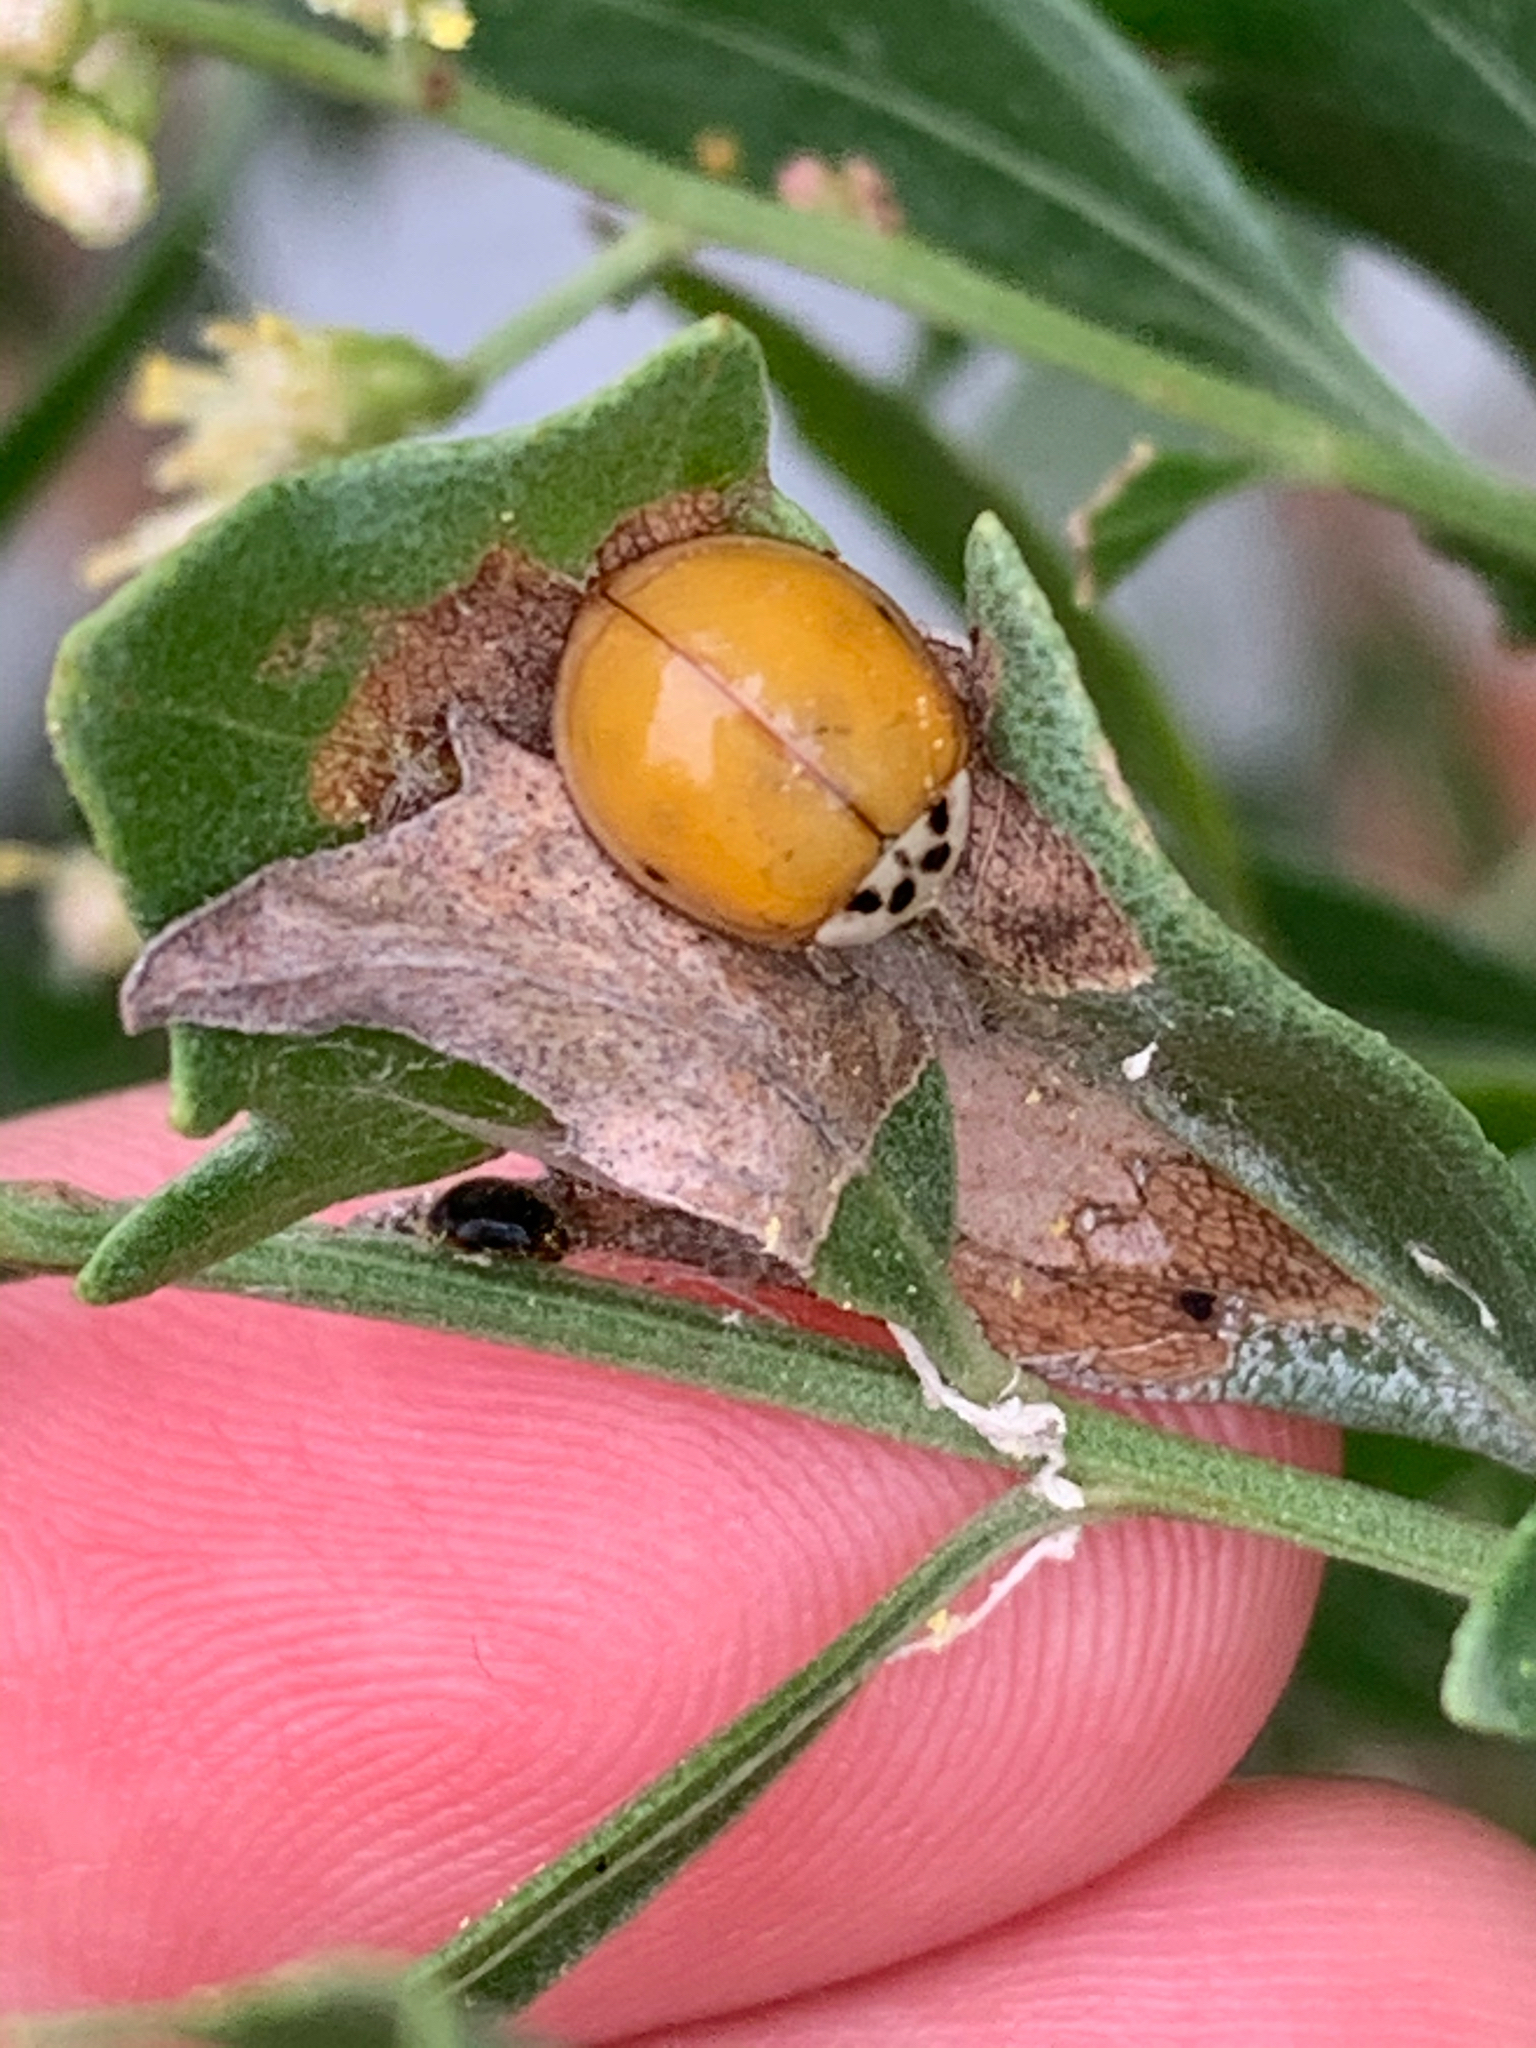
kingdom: Animalia
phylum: Arthropoda
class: Insecta
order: Coleoptera
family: Coccinellidae
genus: Harmonia
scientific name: Harmonia axyridis
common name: Harlequin ladybird
